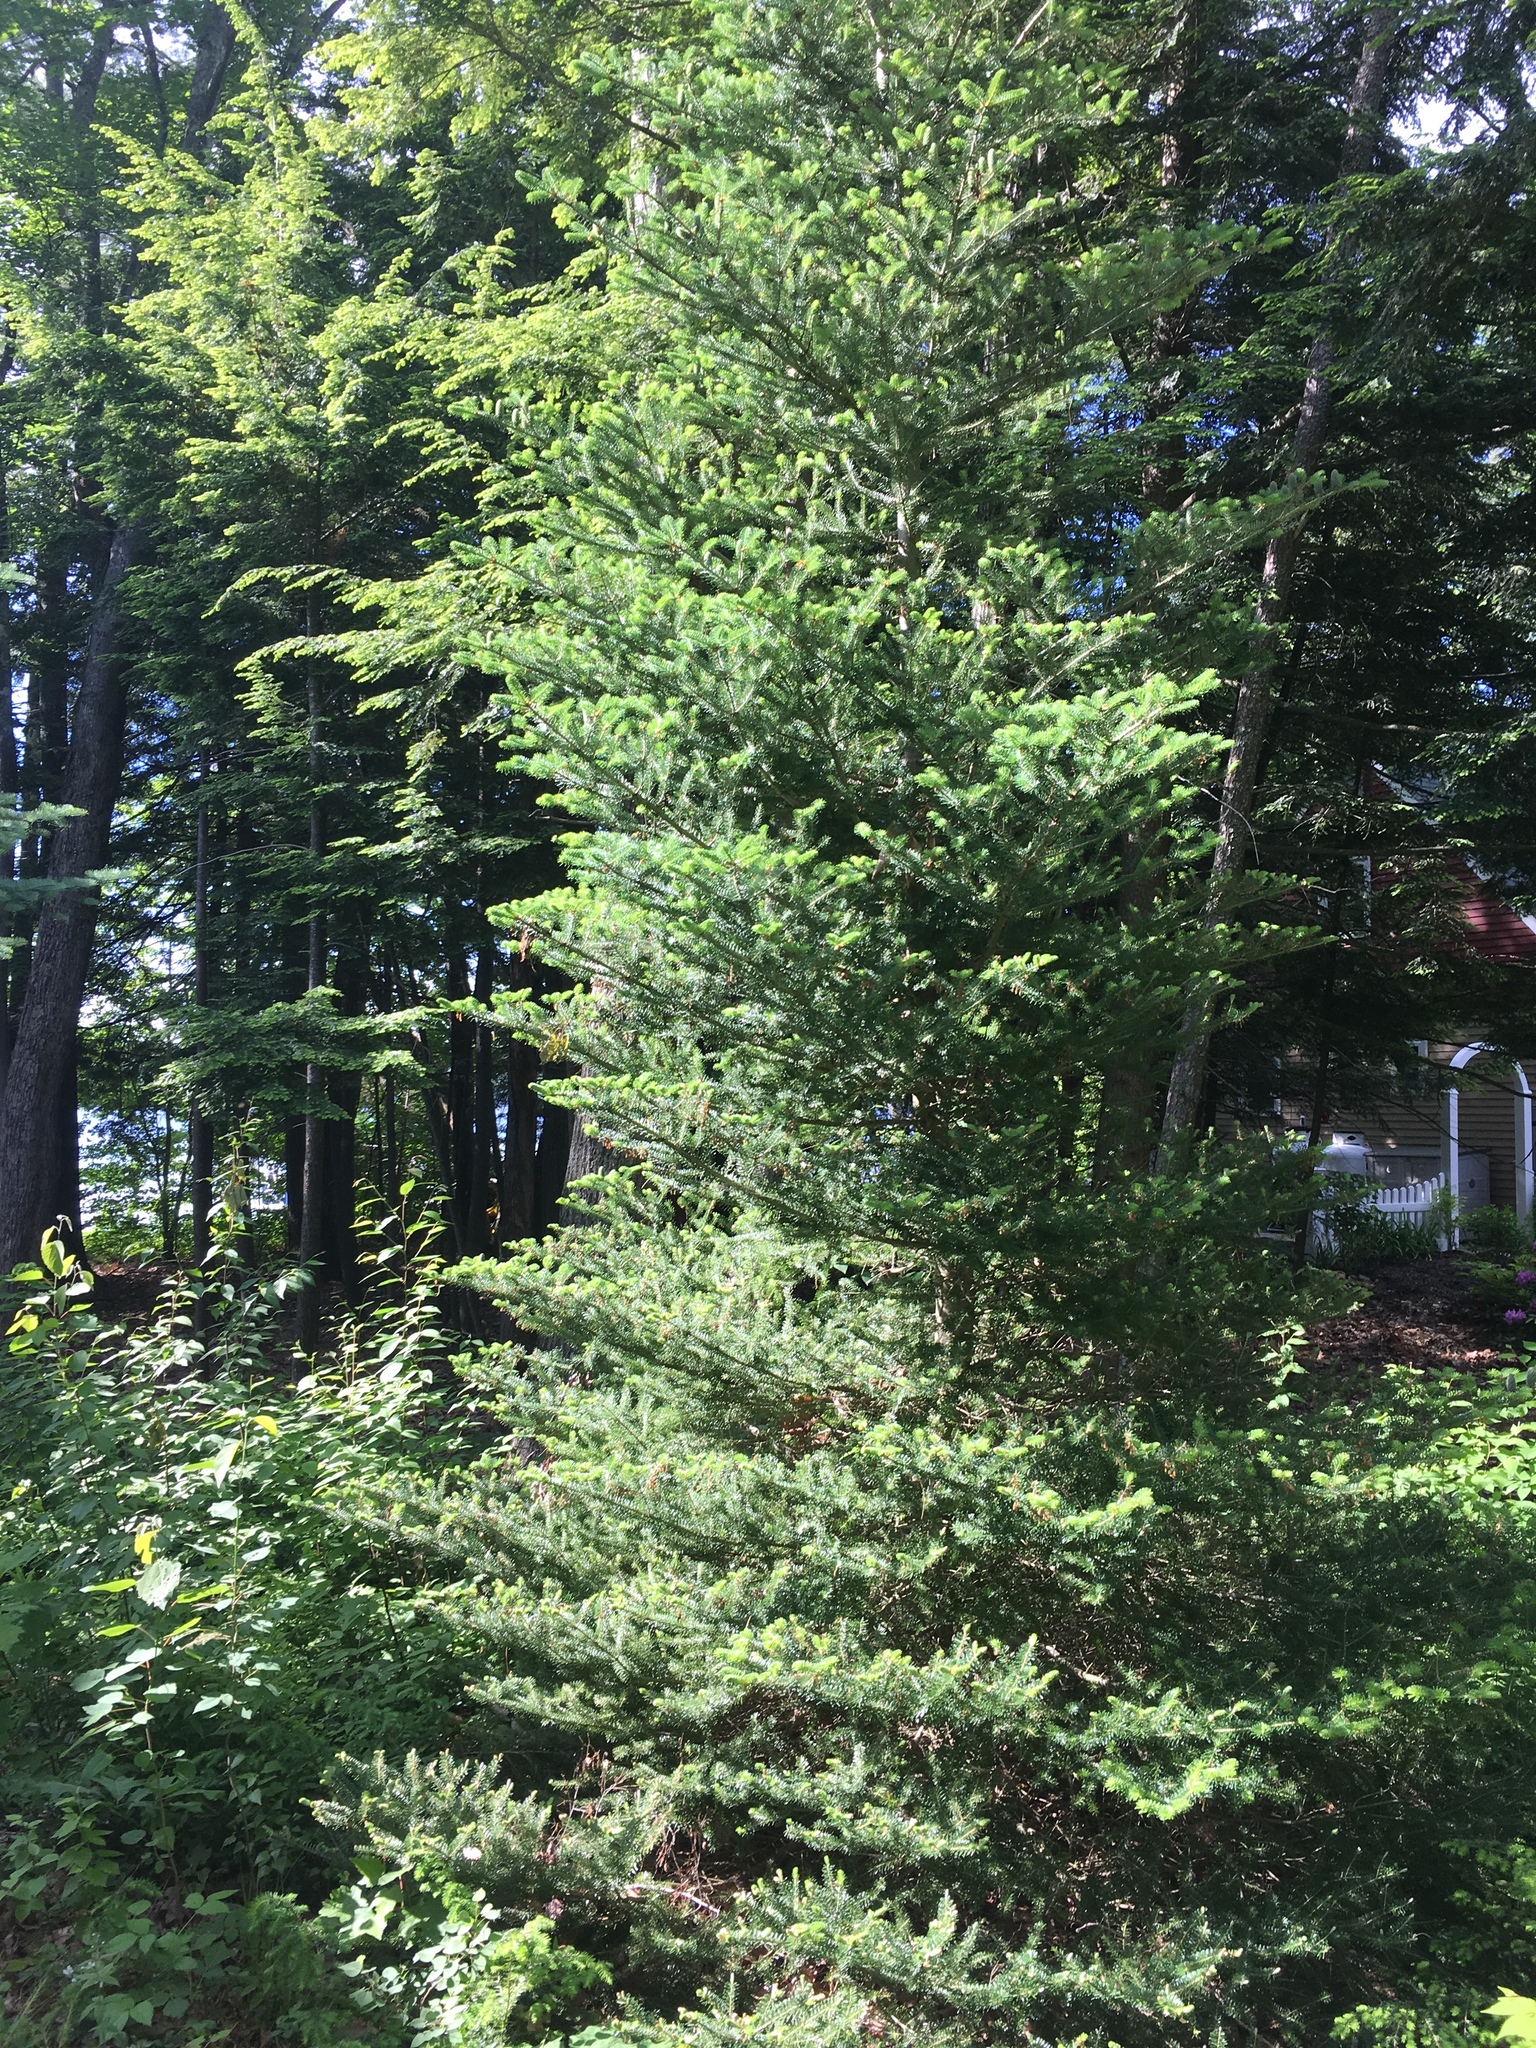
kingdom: Plantae
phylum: Tracheophyta
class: Pinopsida
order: Pinales
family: Pinaceae
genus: Abies
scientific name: Abies balsamea
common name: Balsam fir
